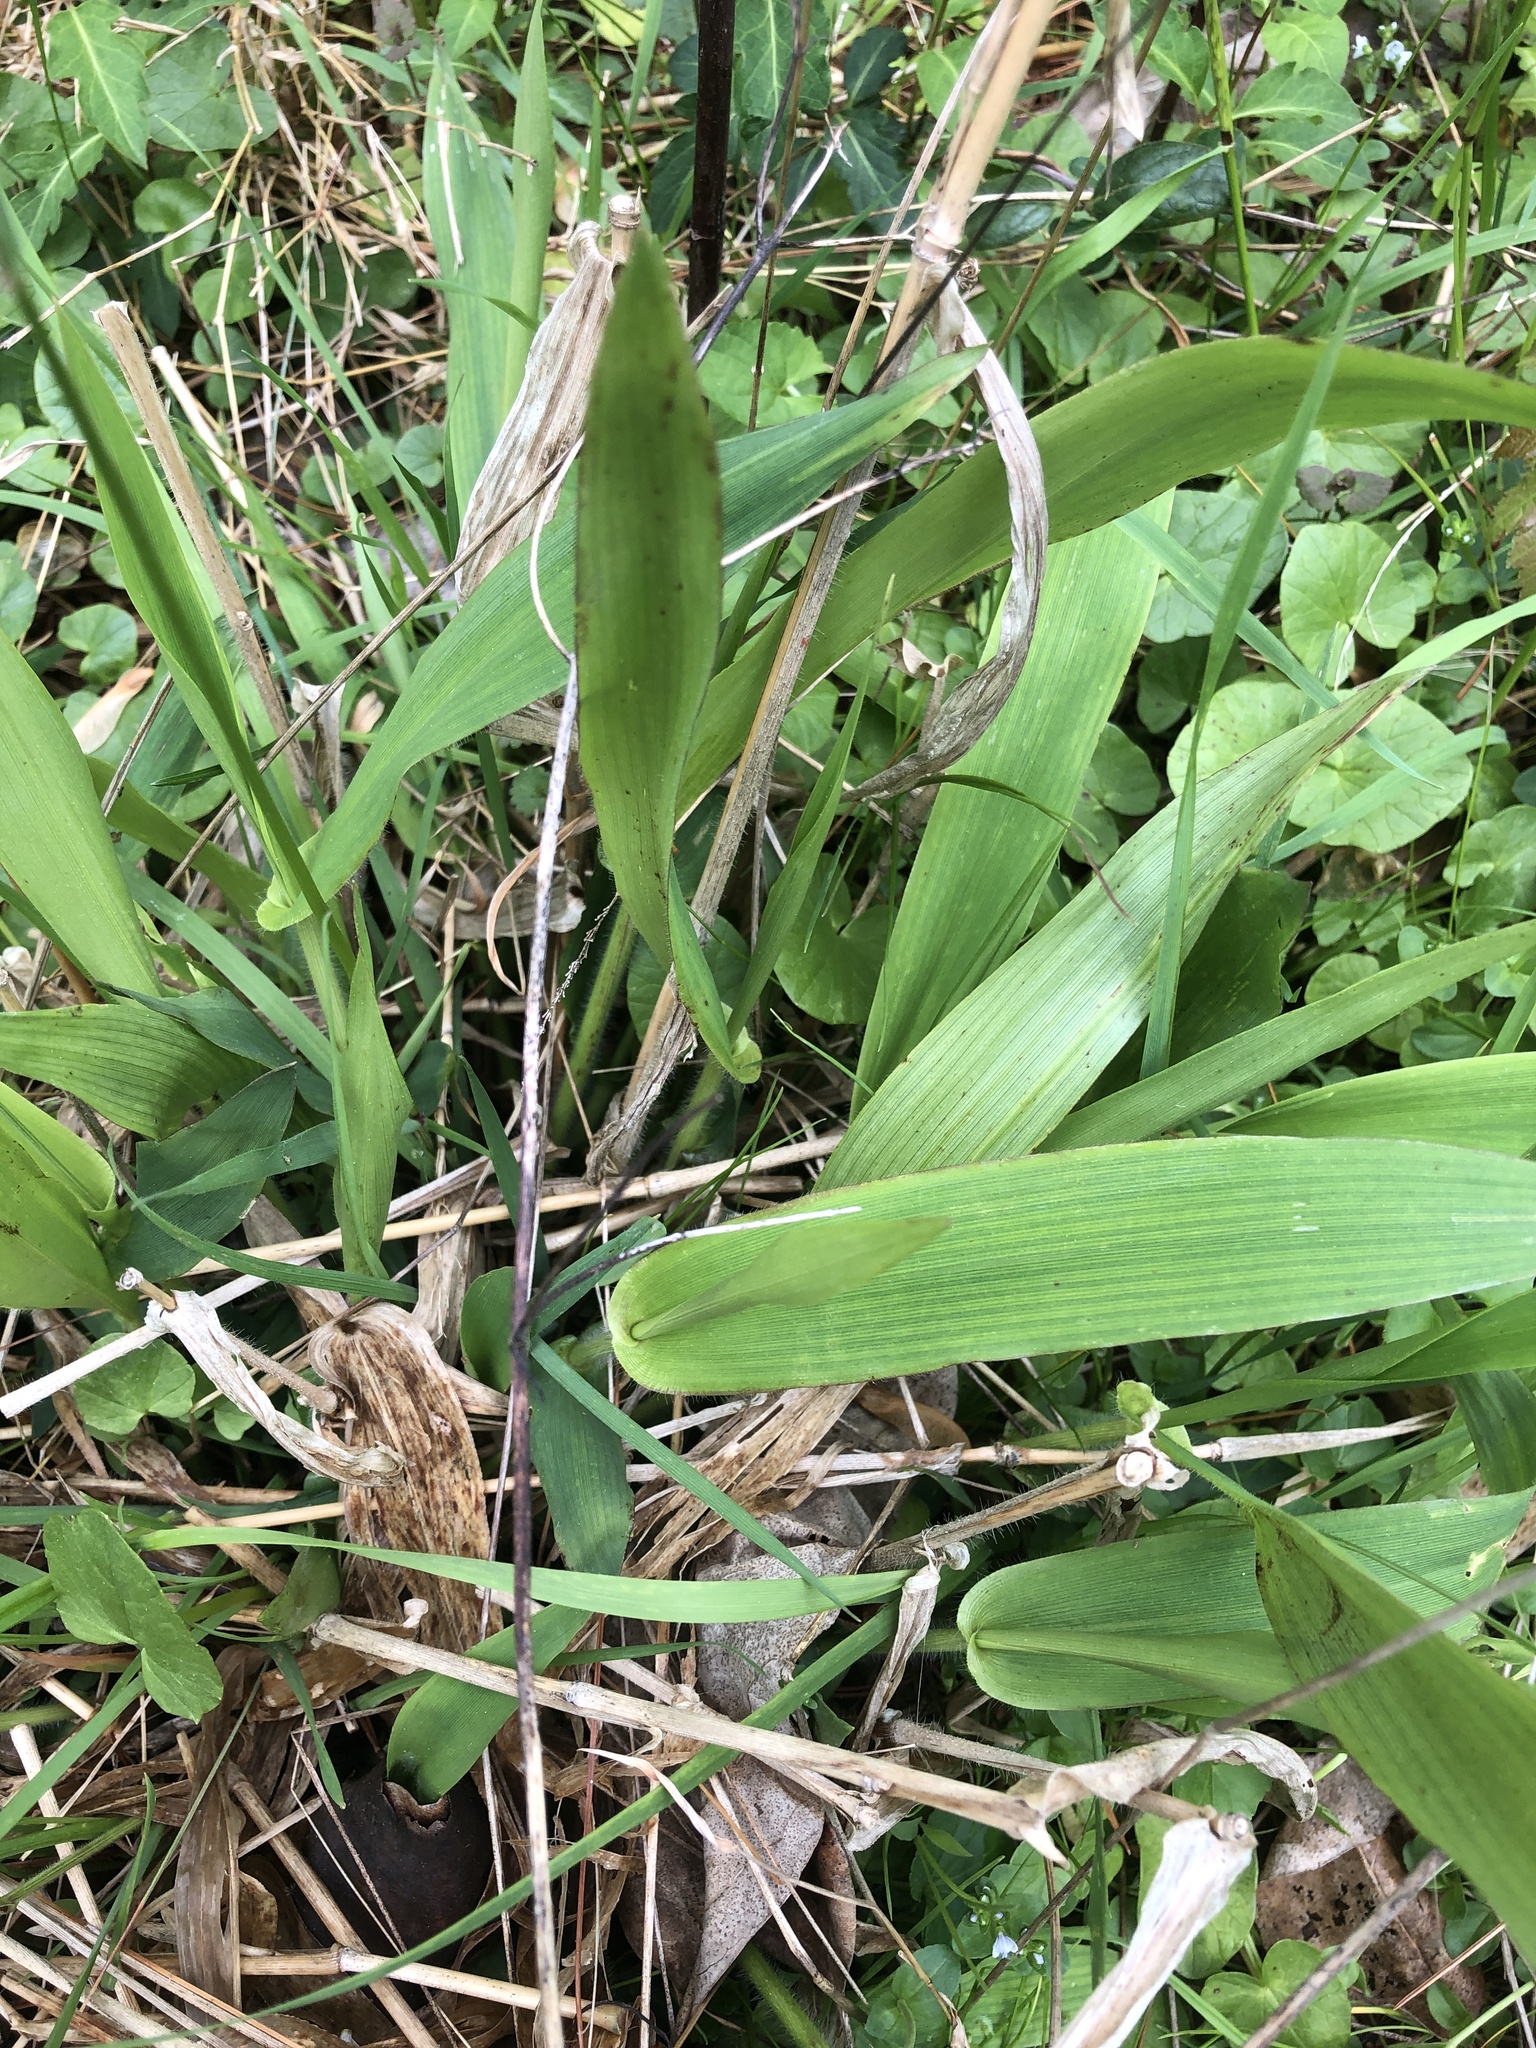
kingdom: Plantae
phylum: Tracheophyta
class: Liliopsida
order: Poales
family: Poaceae
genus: Dichanthelium
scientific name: Dichanthelium clandestinum
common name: Deer-tongue grass
